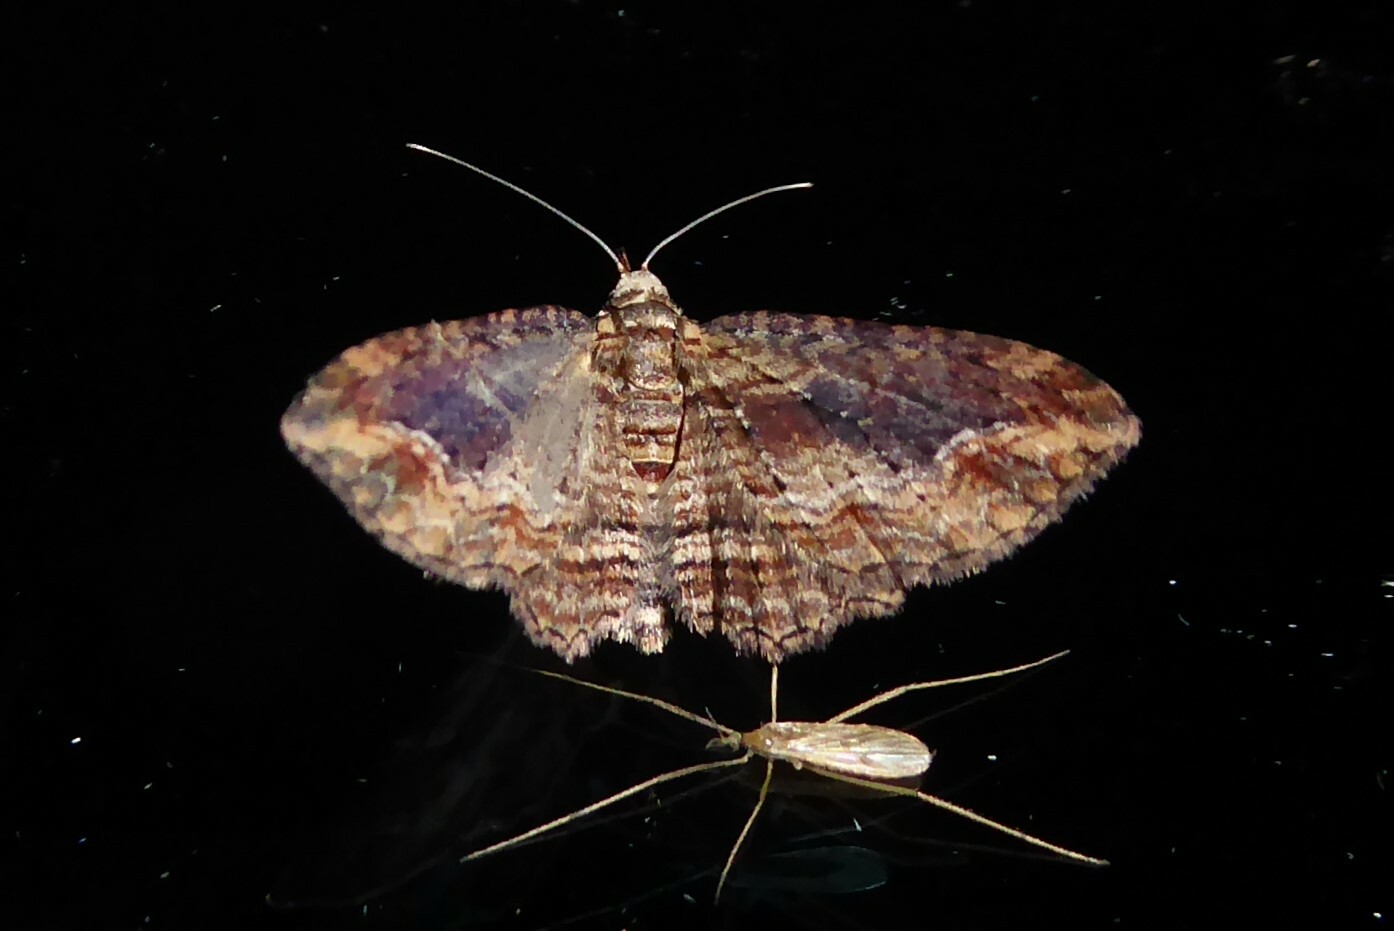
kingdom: Animalia
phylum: Arthropoda
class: Insecta
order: Lepidoptera
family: Geometridae
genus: Chloroclystis
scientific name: Chloroclystis filata
